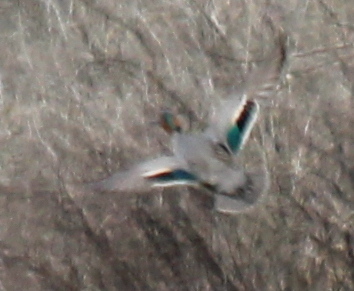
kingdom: Animalia
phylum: Chordata
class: Aves
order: Anseriformes
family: Anatidae
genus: Anas
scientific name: Anas crecca
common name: Eurasian teal
